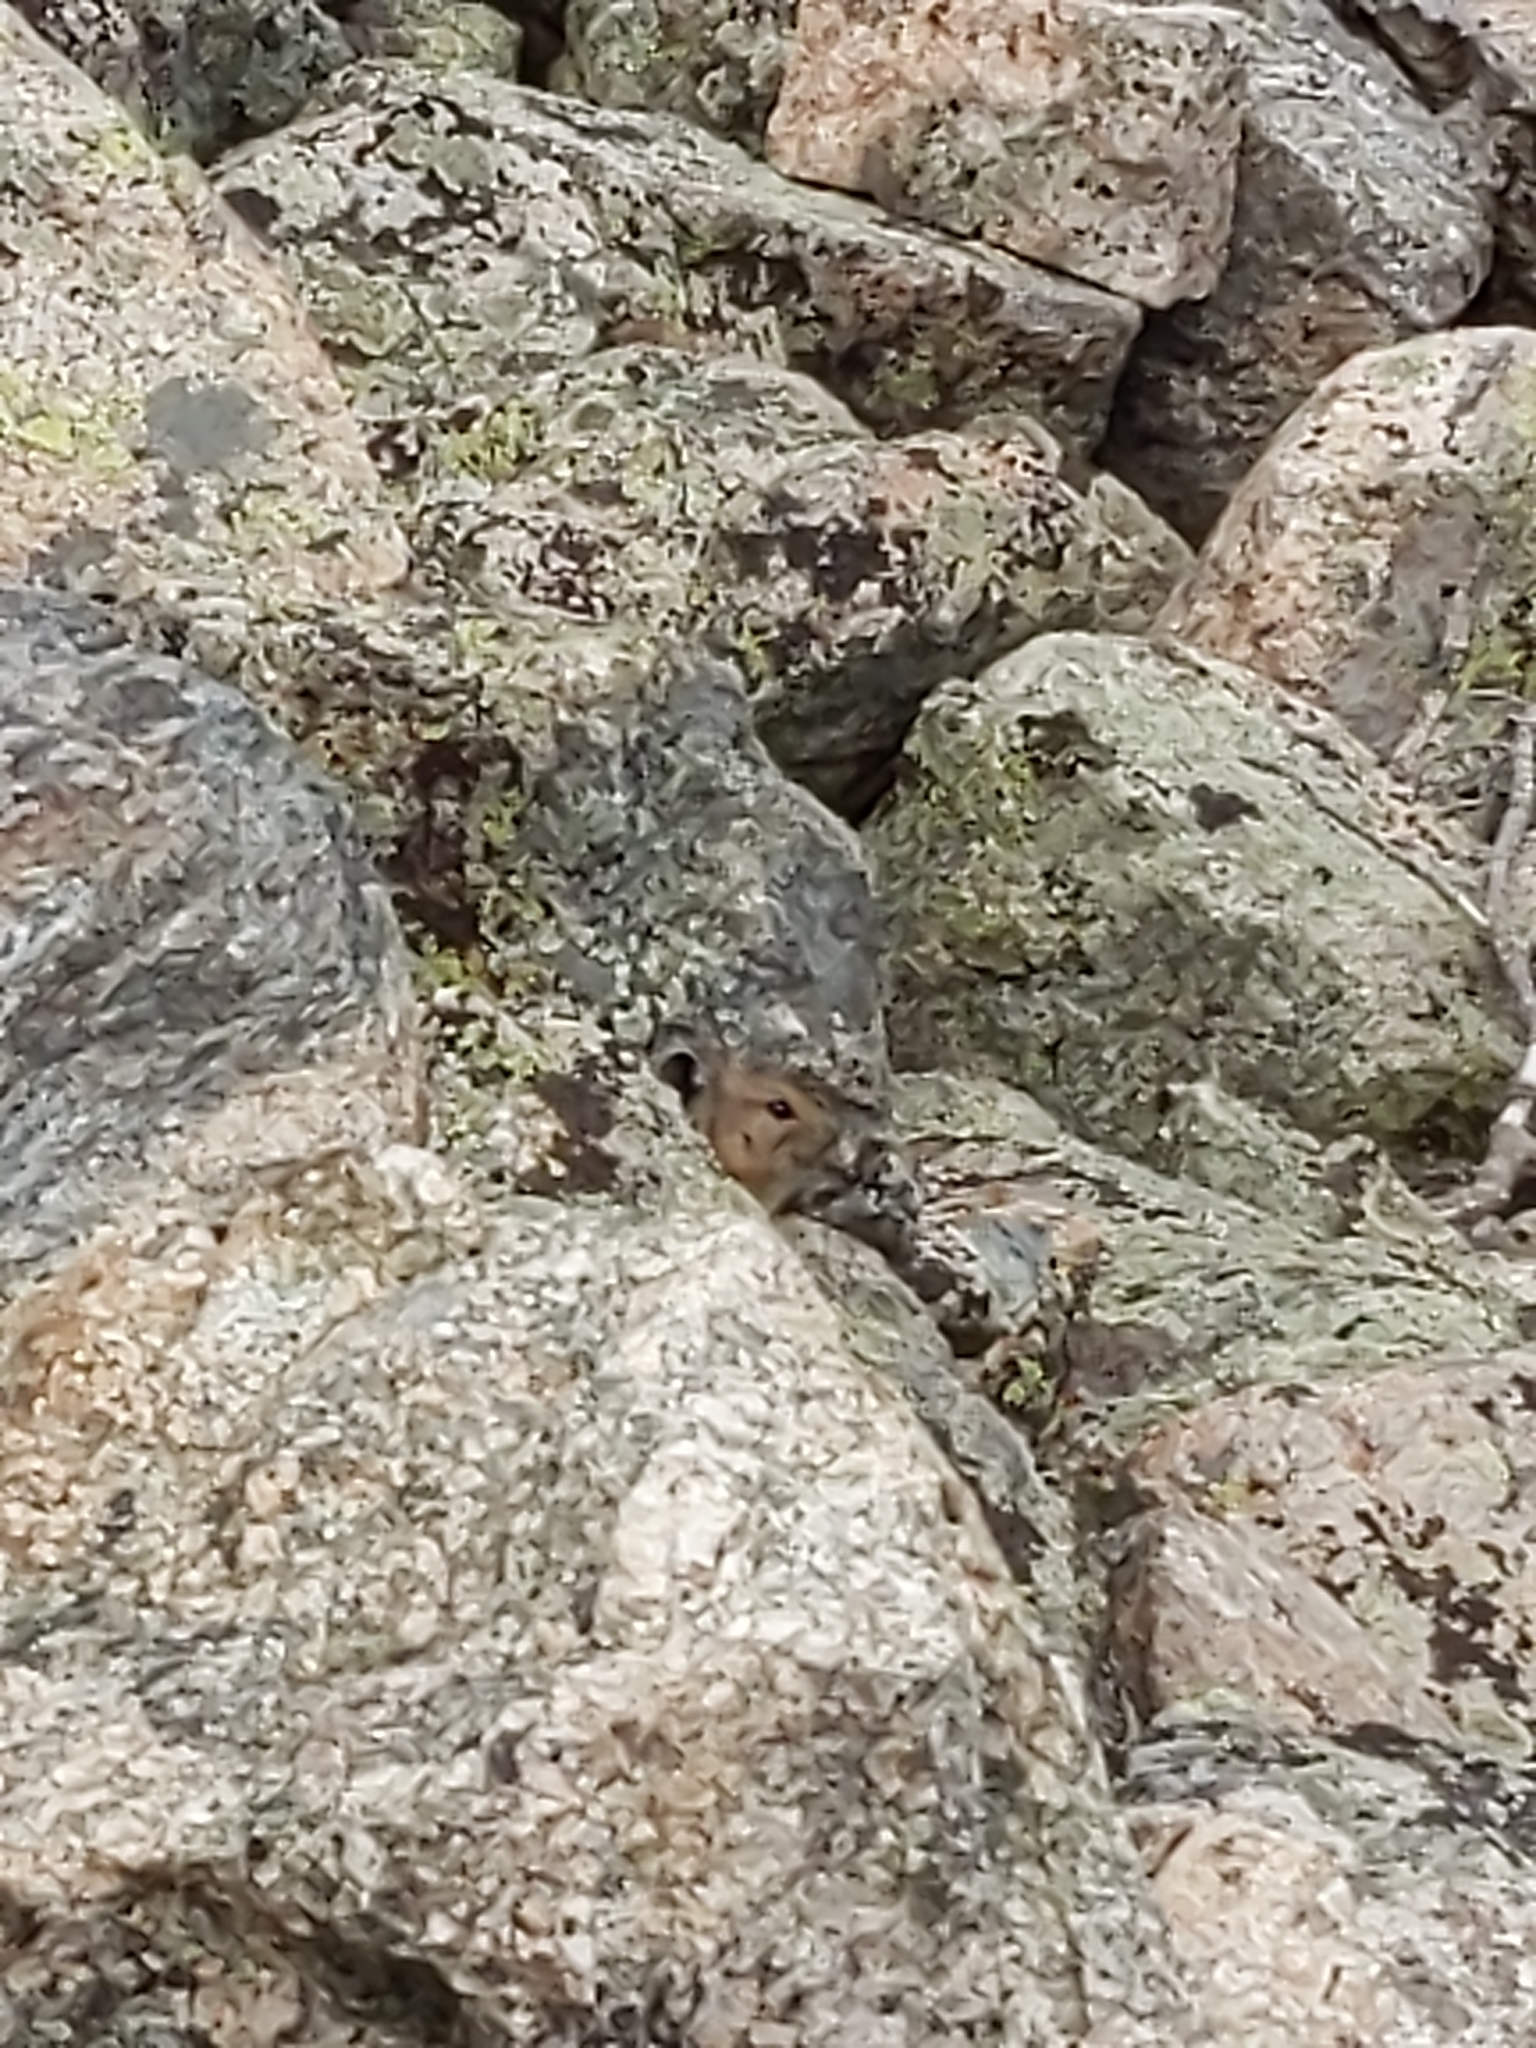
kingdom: Animalia
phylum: Chordata
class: Mammalia
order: Lagomorpha
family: Ochotonidae
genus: Ochotona
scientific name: Ochotona princeps
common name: American pika
